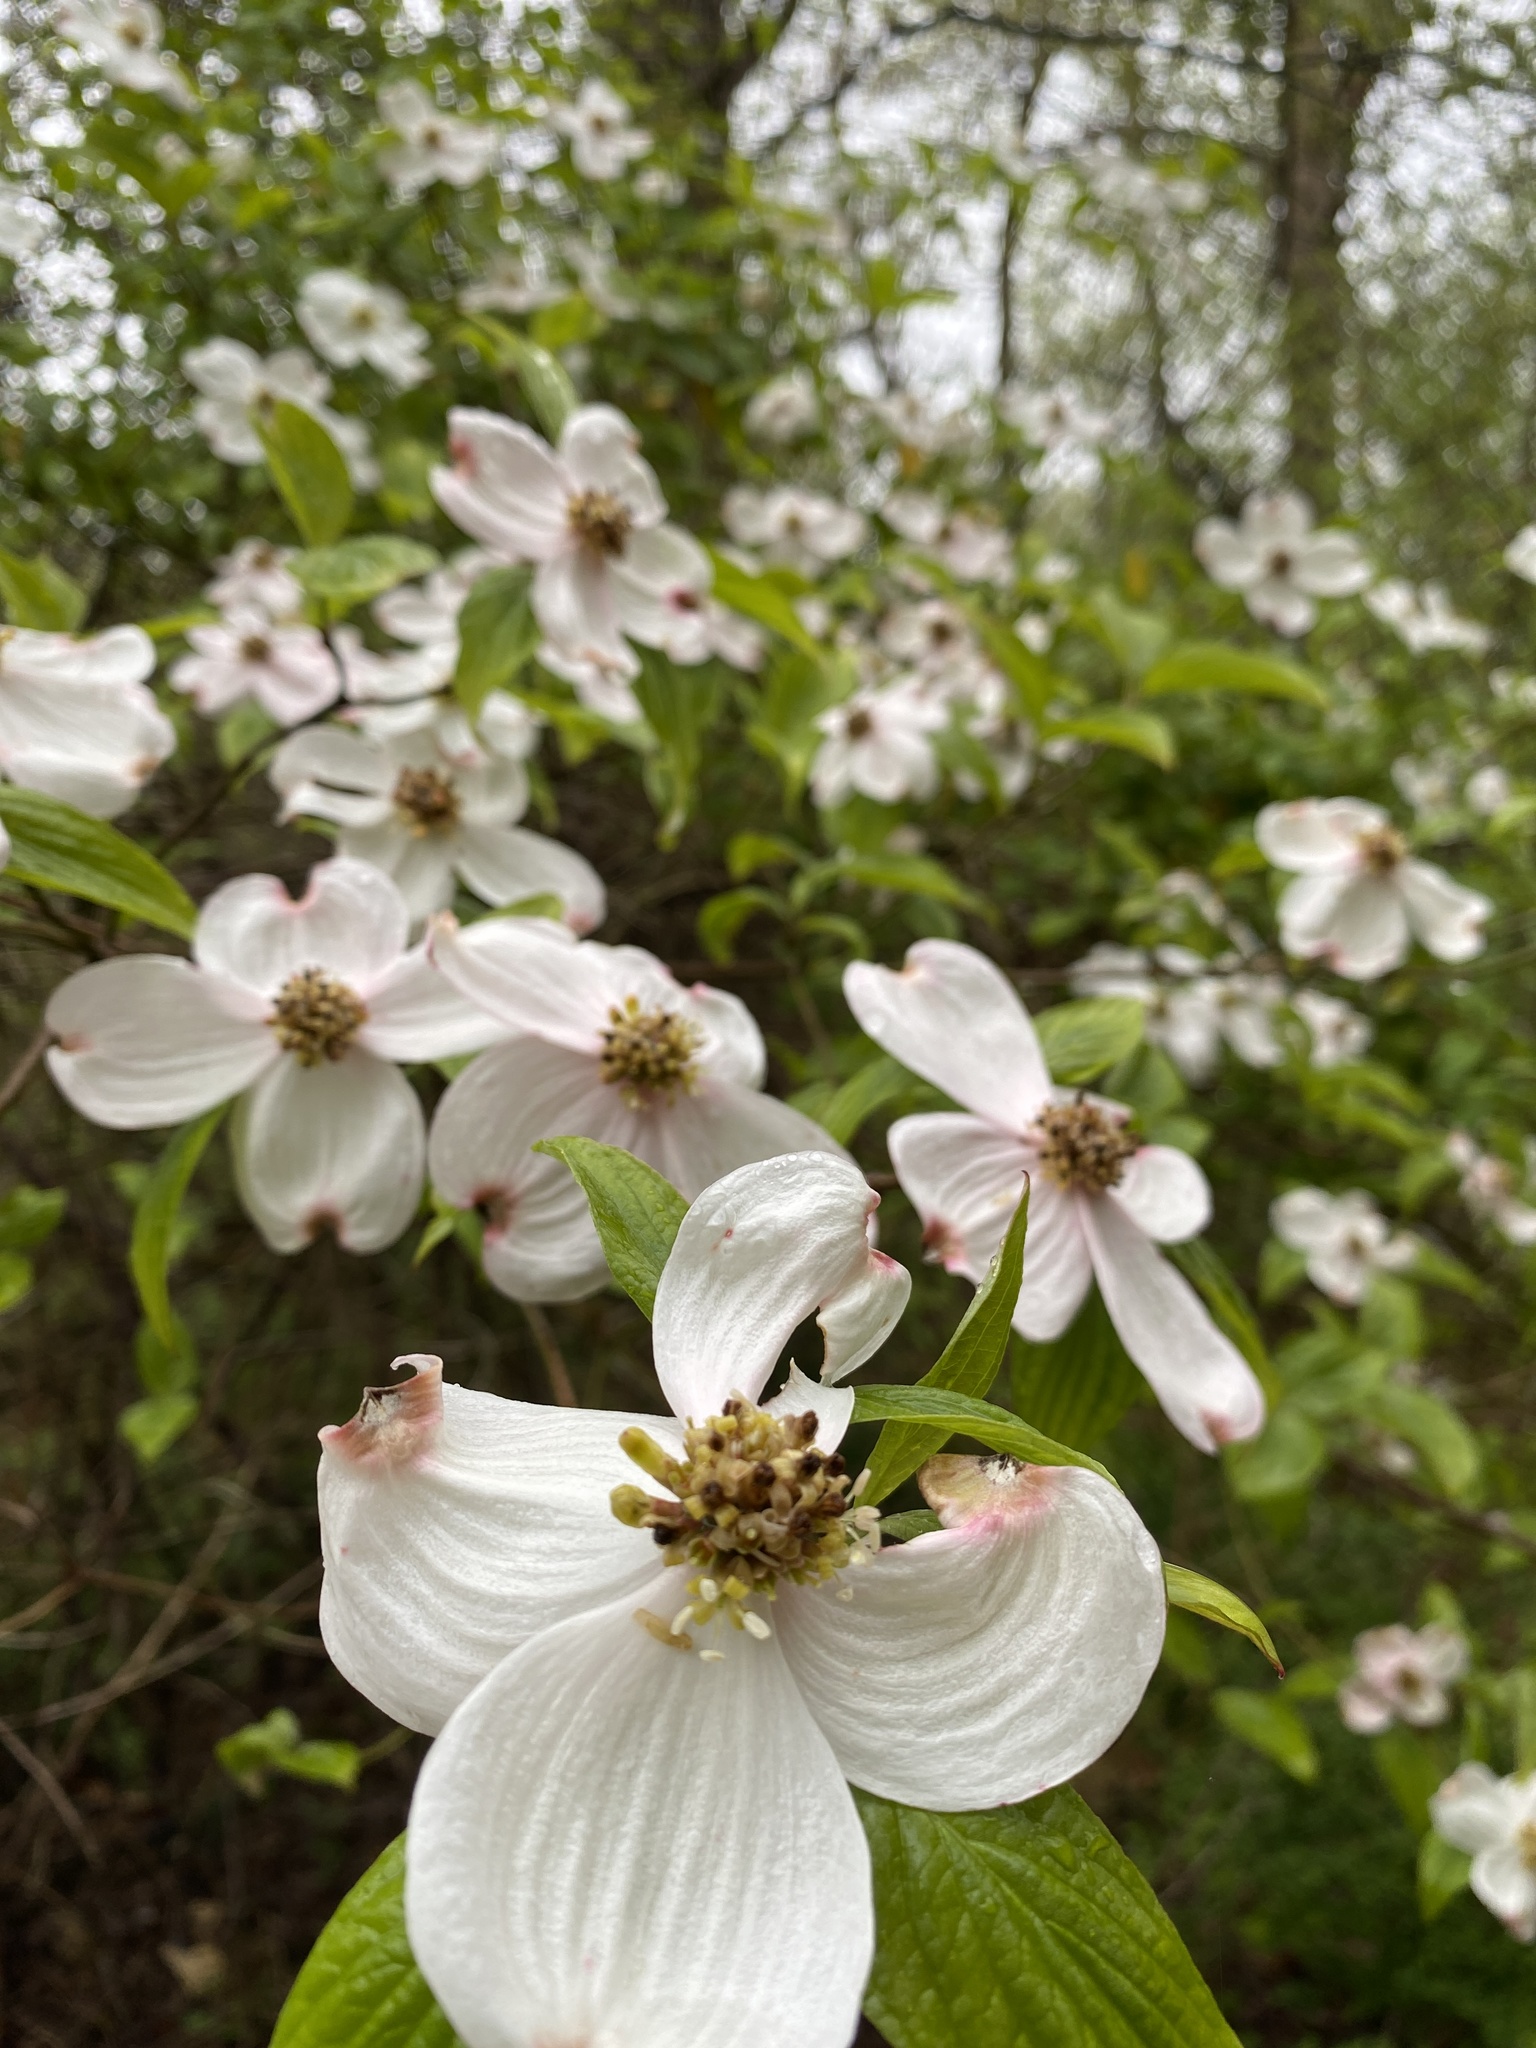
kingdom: Plantae
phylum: Tracheophyta
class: Magnoliopsida
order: Cornales
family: Cornaceae
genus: Cornus
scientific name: Cornus florida
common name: Flowering dogwood
